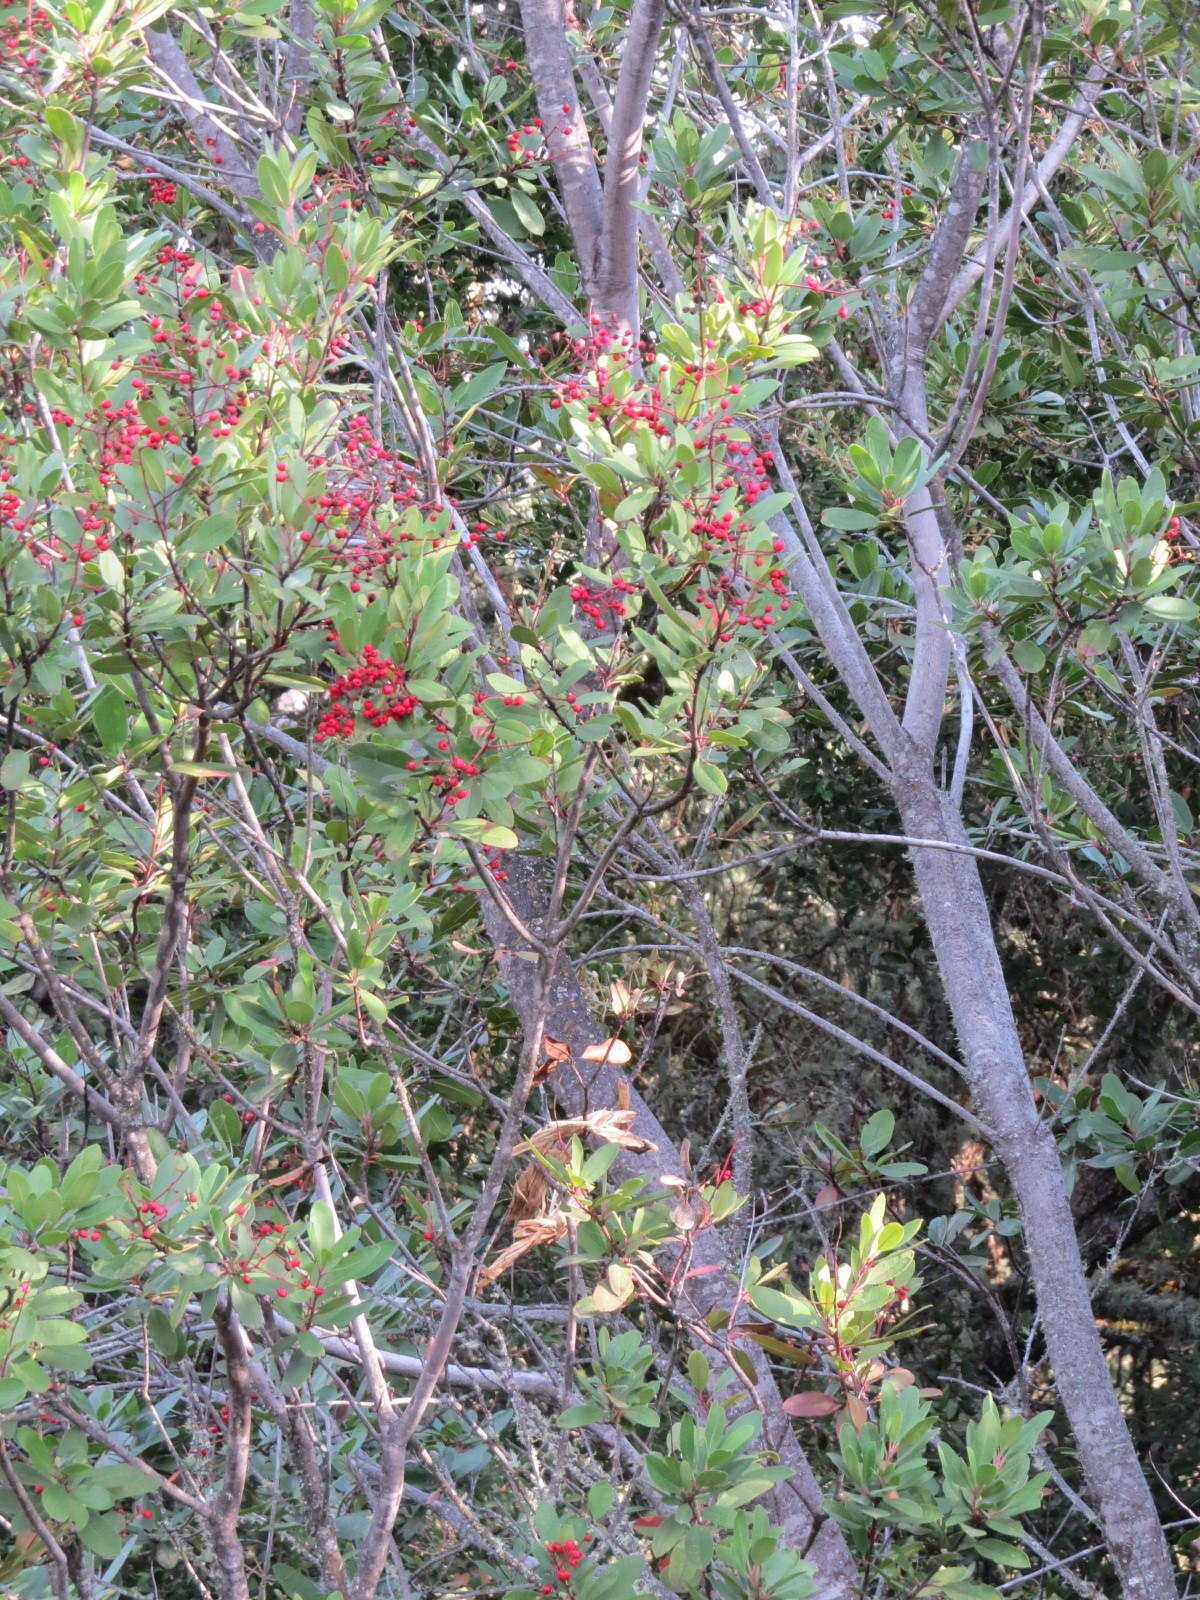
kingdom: Plantae
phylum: Tracheophyta
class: Magnoliopsida
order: Rosales
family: Rosaceae
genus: Heteromeles
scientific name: Heteromeles arbutifolia
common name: California-holly
